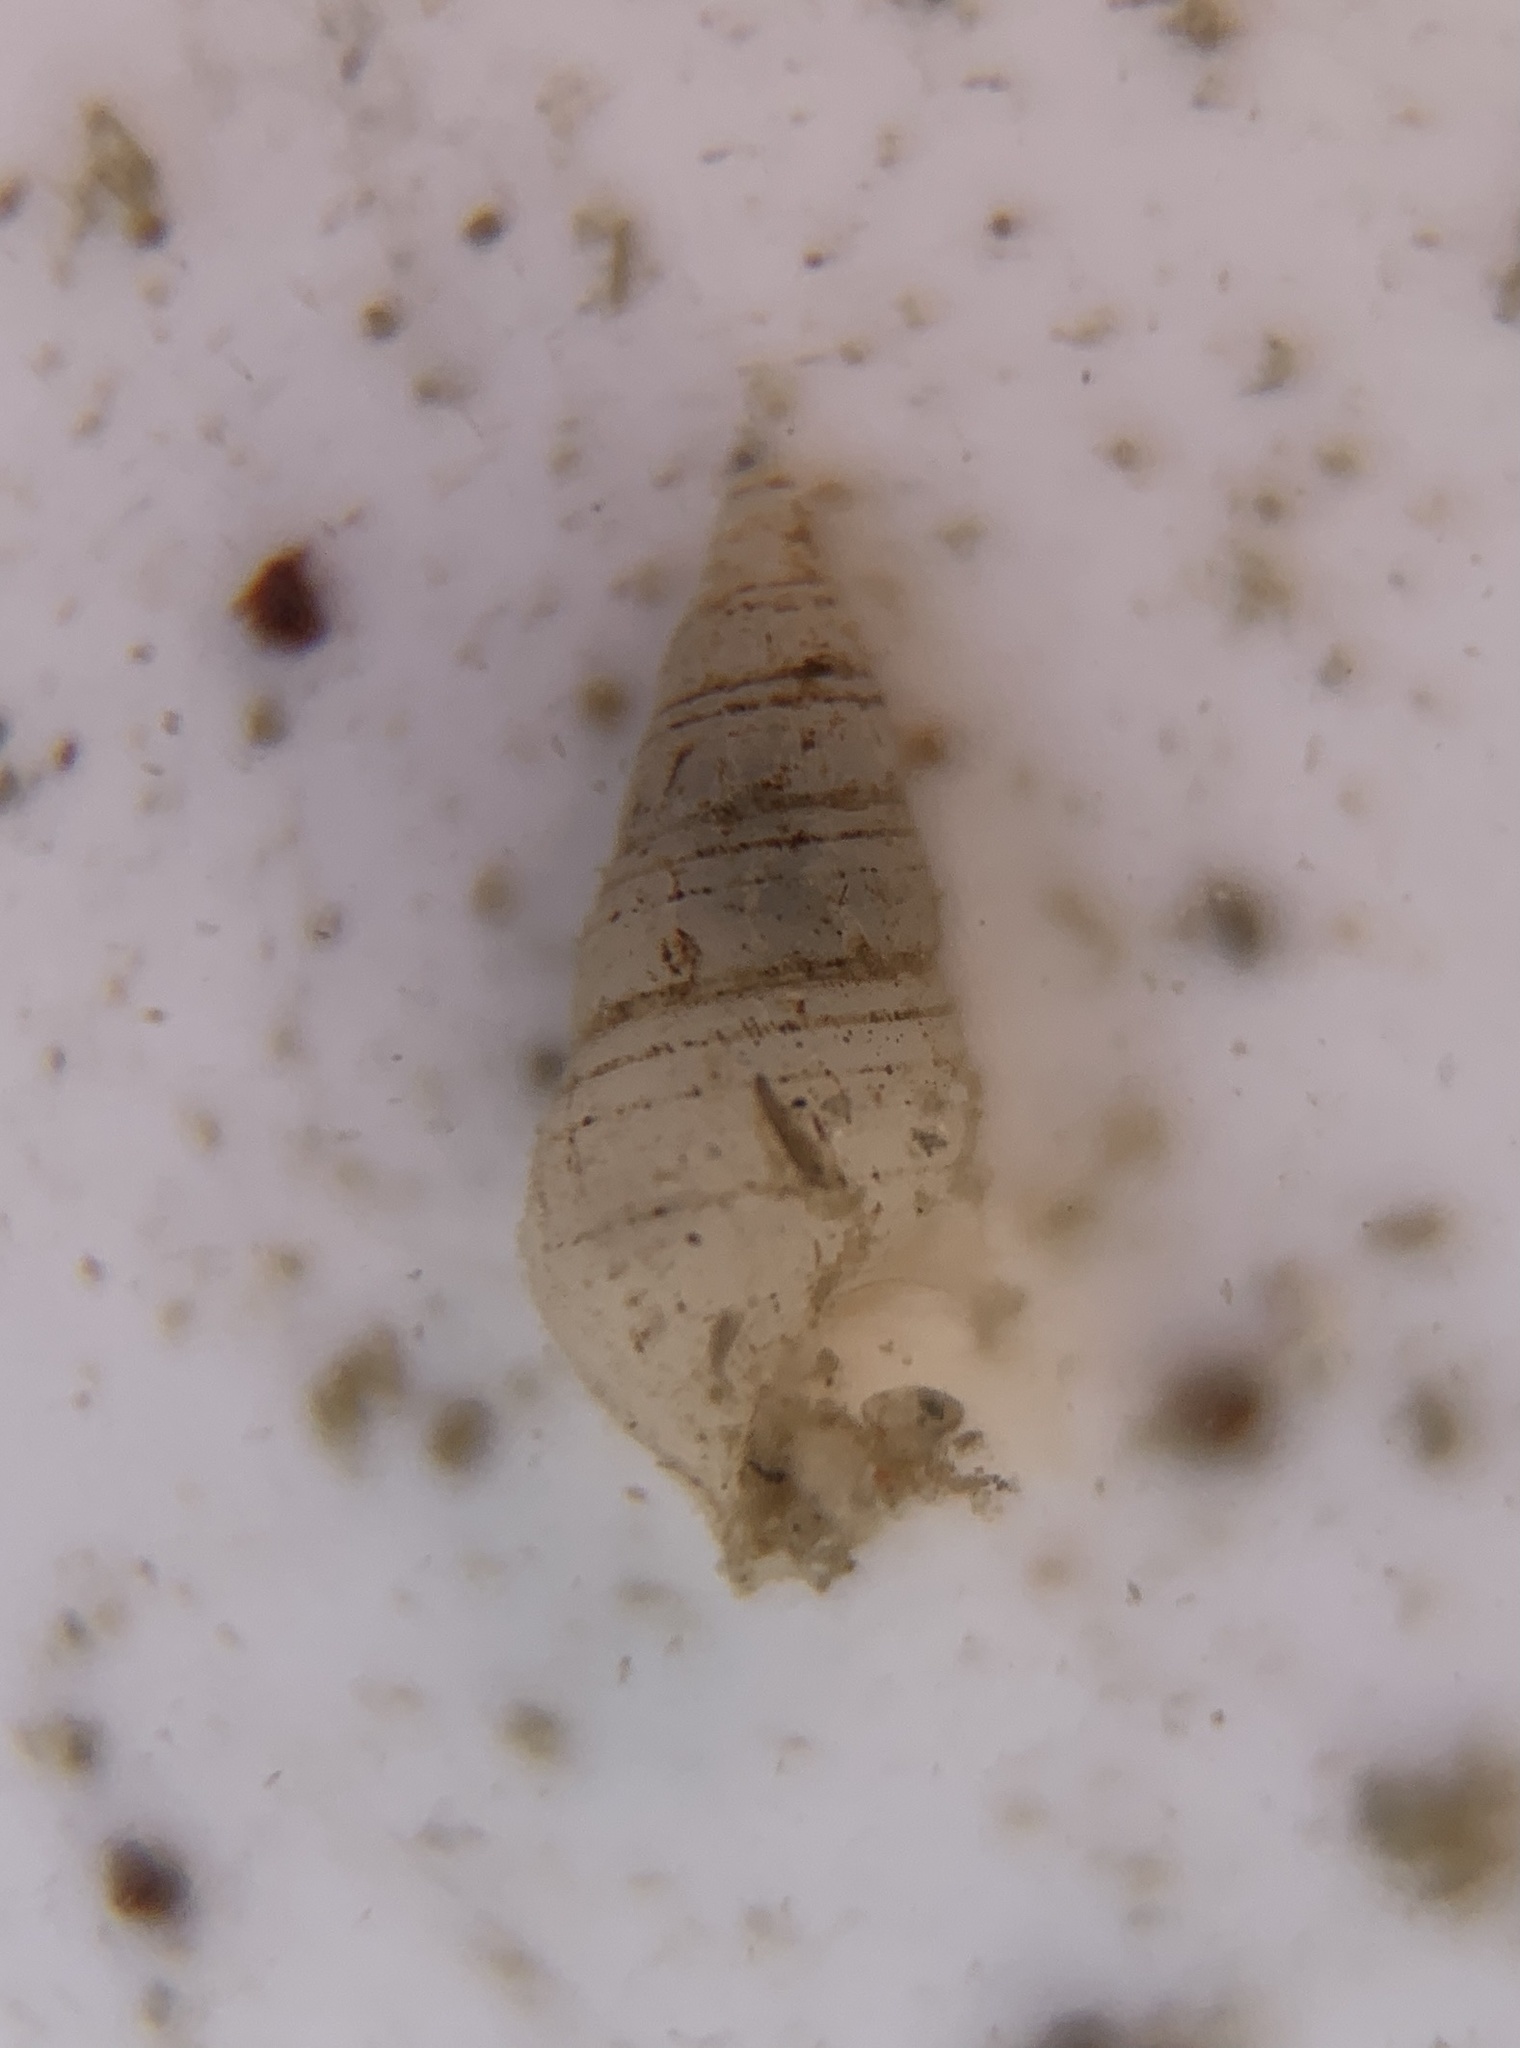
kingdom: Animalia
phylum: Mollusca
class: Gastropoda
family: Pyramidellidae
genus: Boonea
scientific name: Boonea bisuturalis
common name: Two-groove odostome
